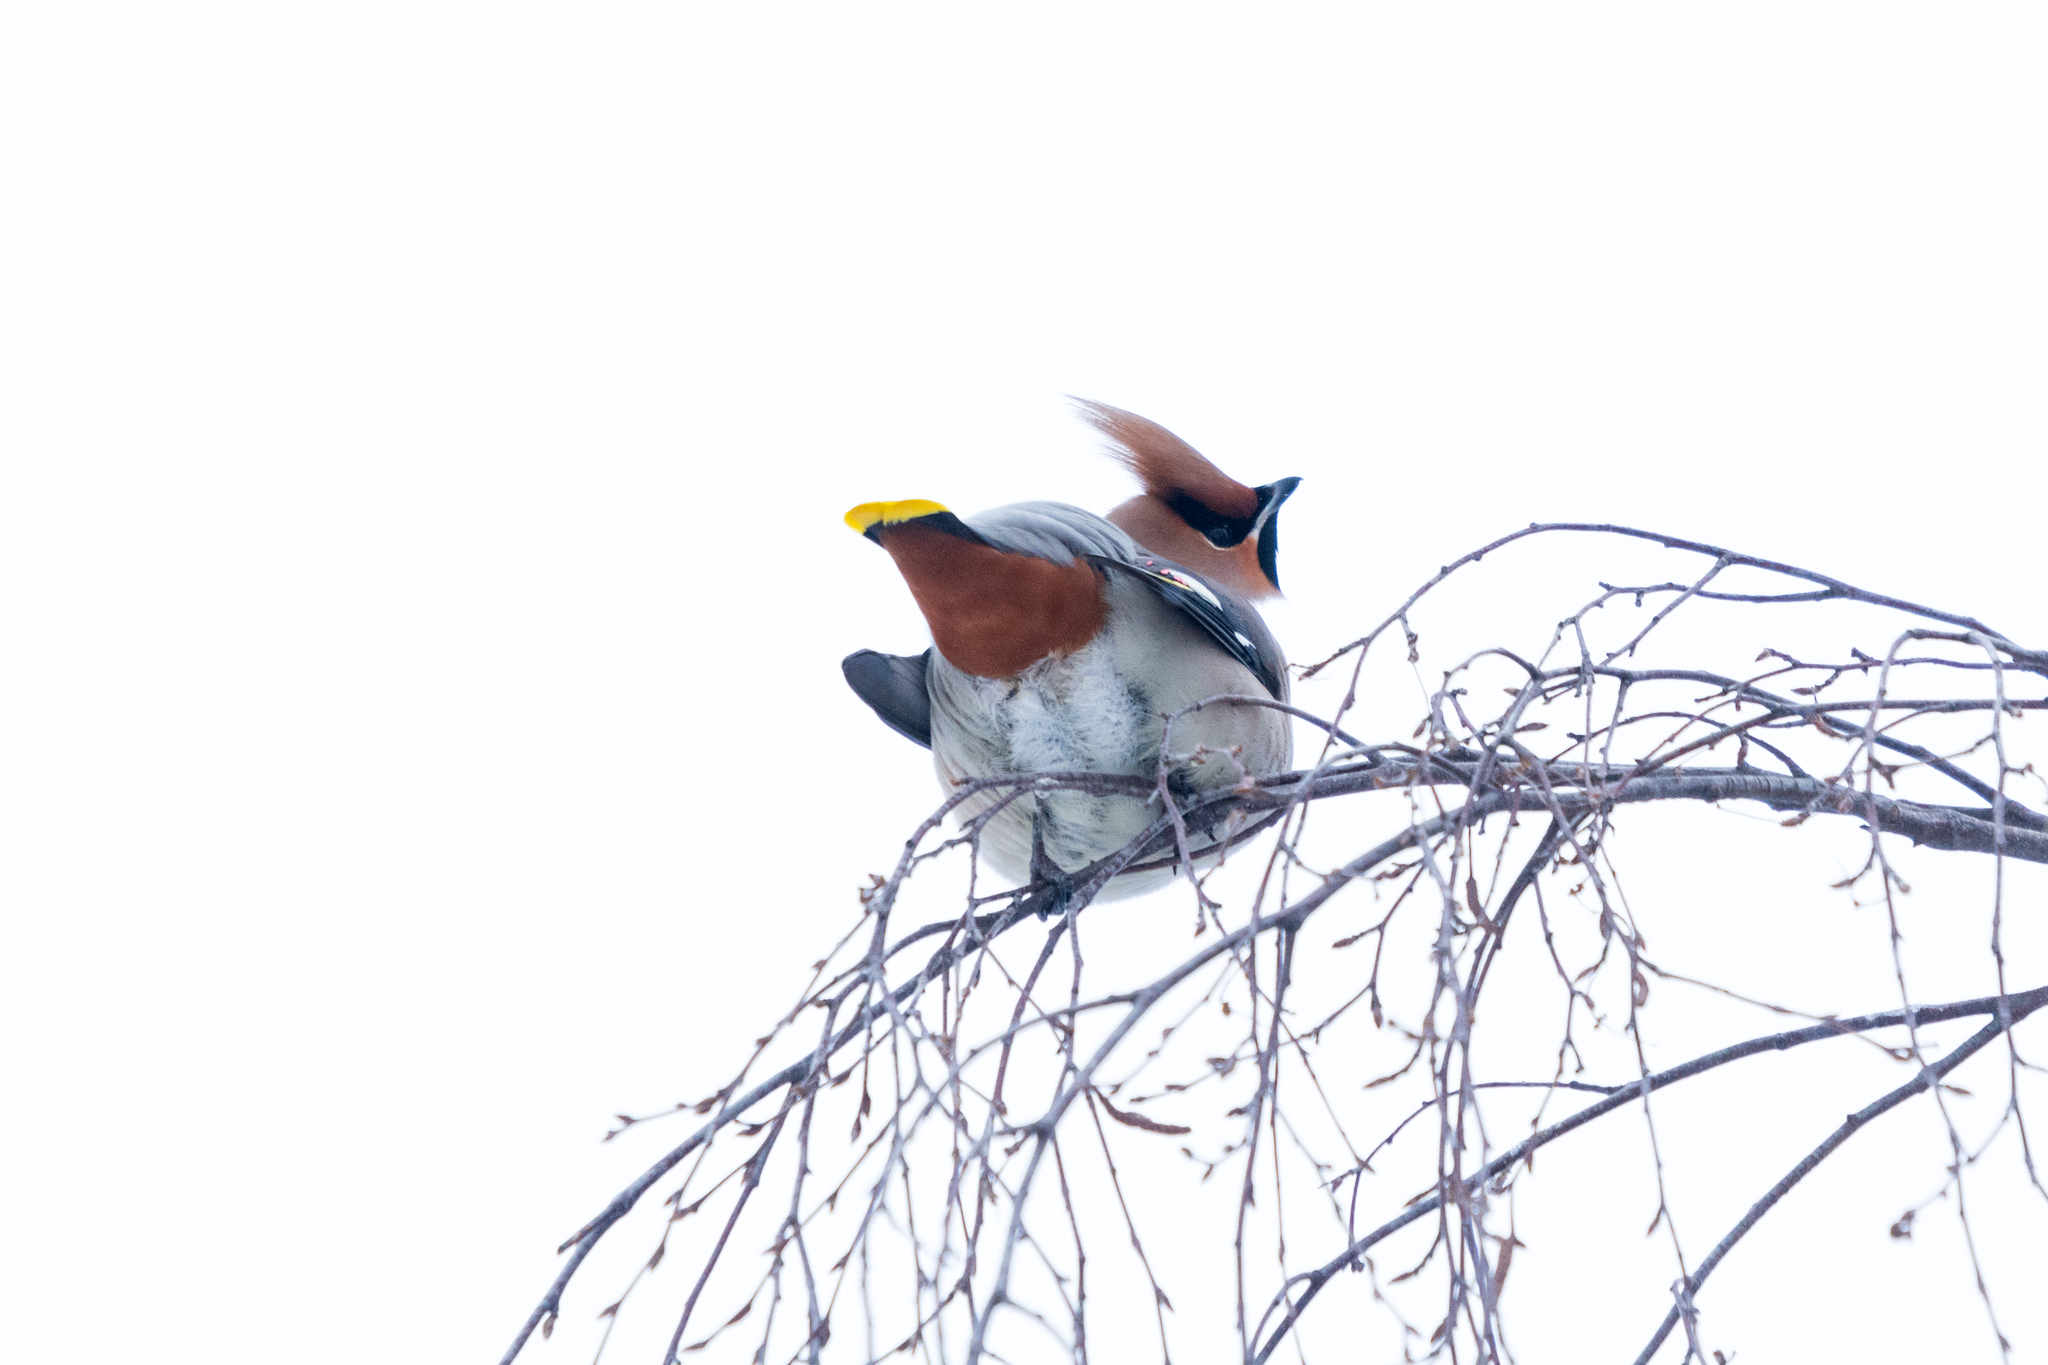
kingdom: Animalia
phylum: Chordata
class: Aves
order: Passeriformes
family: Bombycillidae
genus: Bombycilla
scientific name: Bombycilla garrulus
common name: Bohemian waxwing
